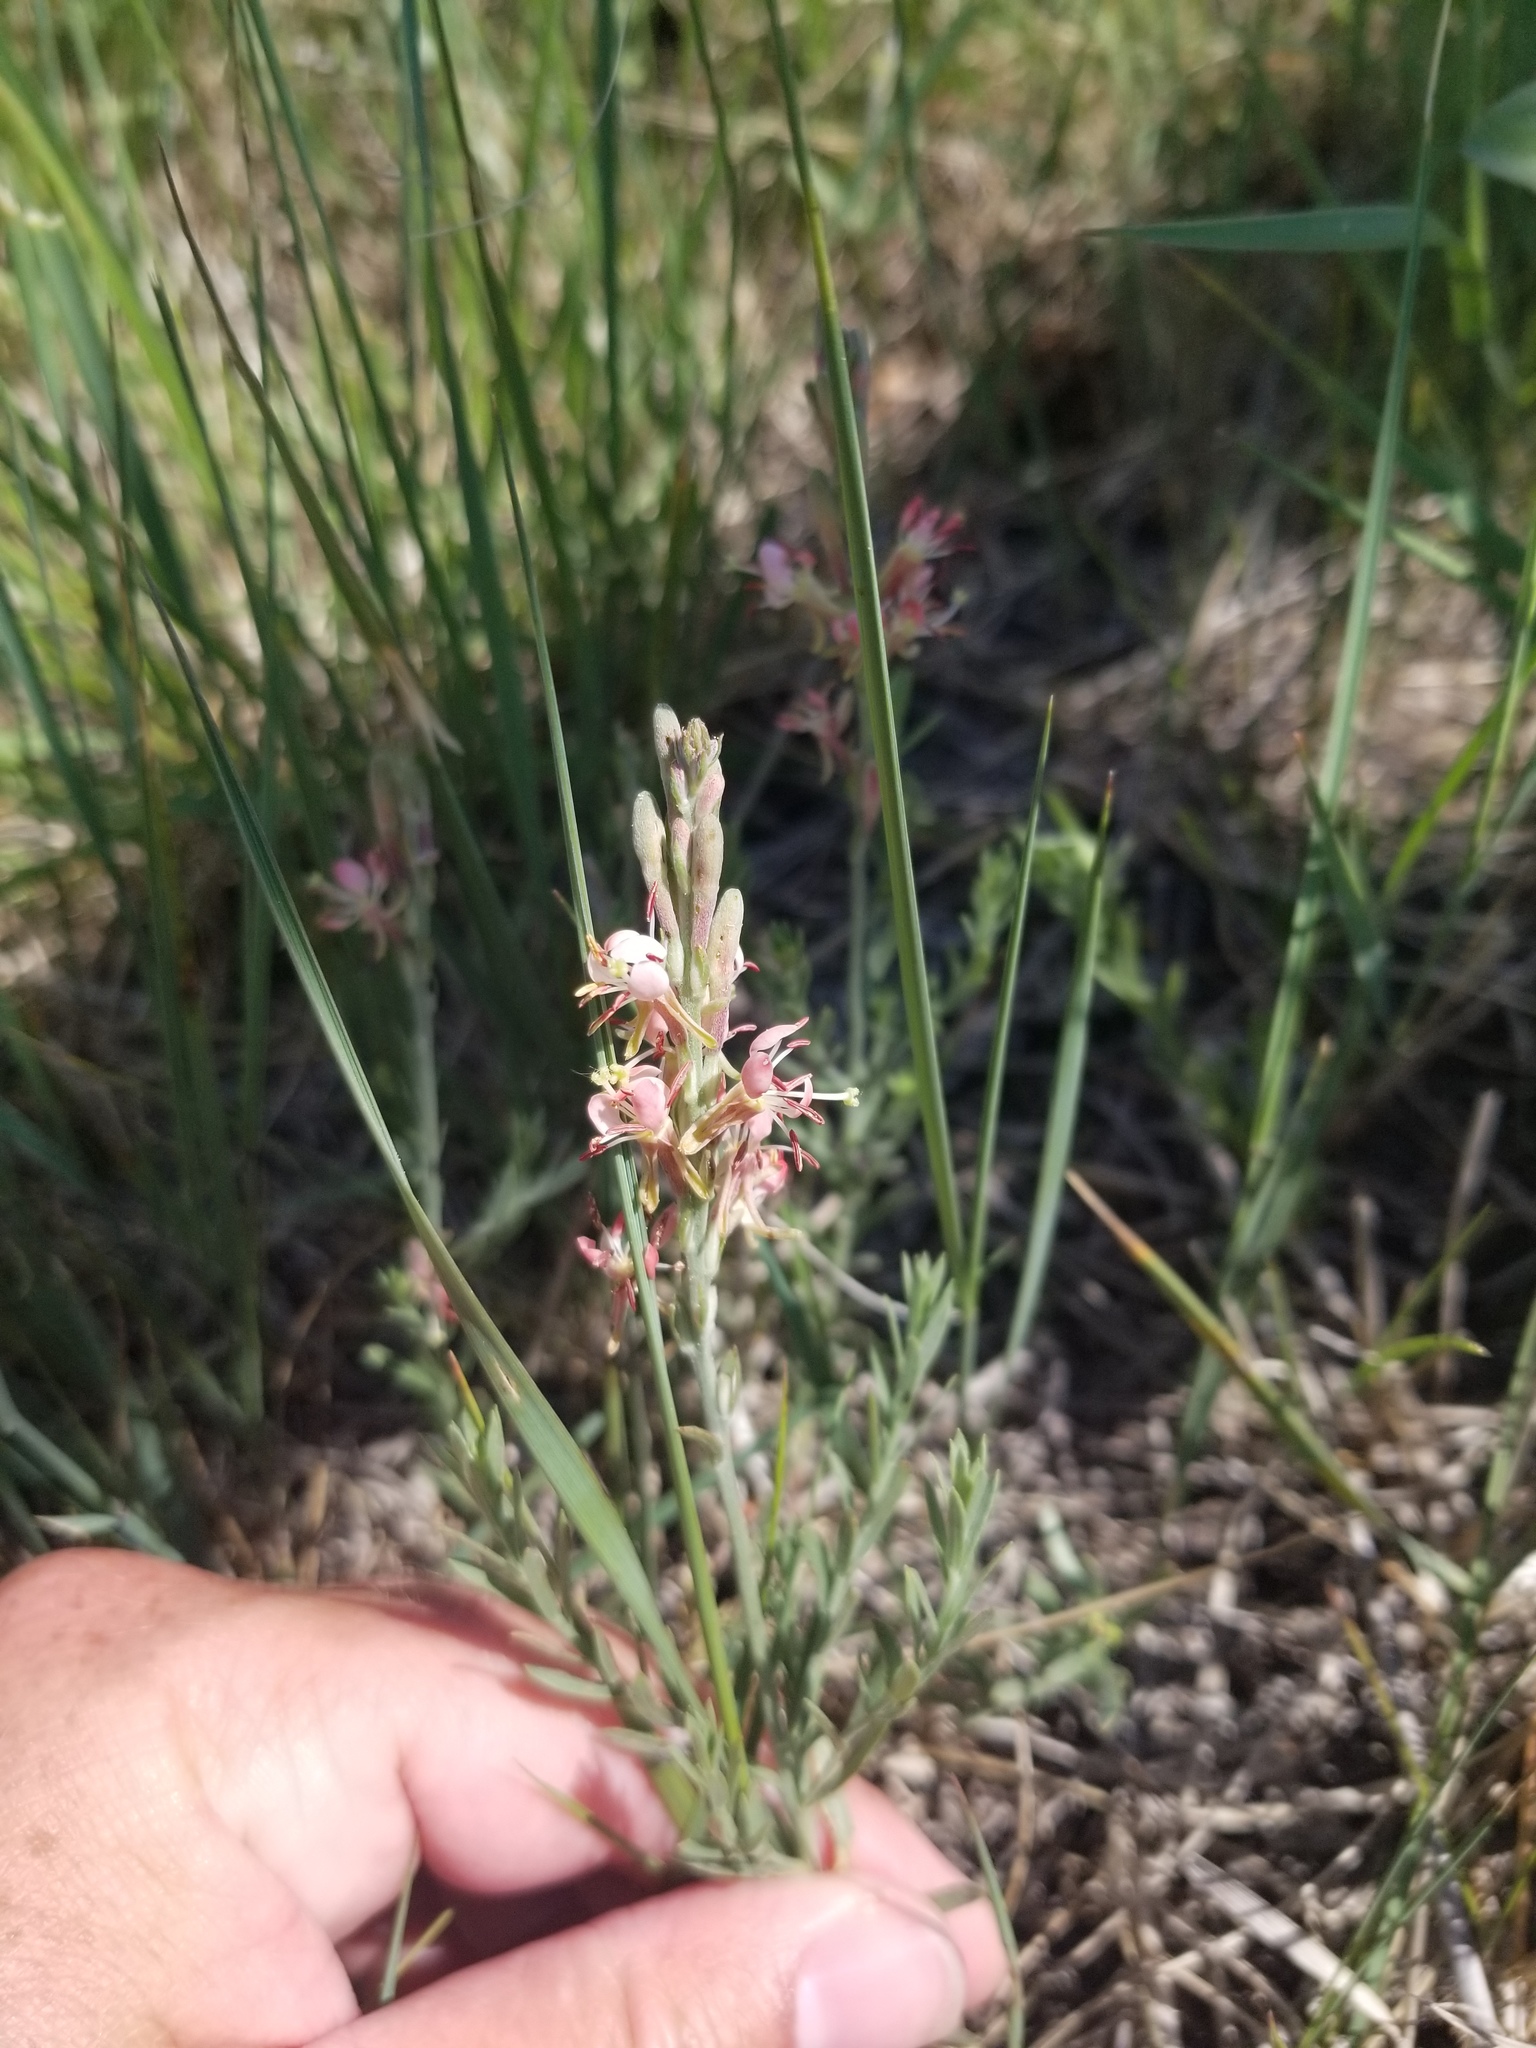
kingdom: Plantae
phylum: Tracheophyta
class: Magnoliopsida
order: Myrtales
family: Onagraceae
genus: Oenothera
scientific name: Oenothera suffrutescens
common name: Scarlet beeblossom
